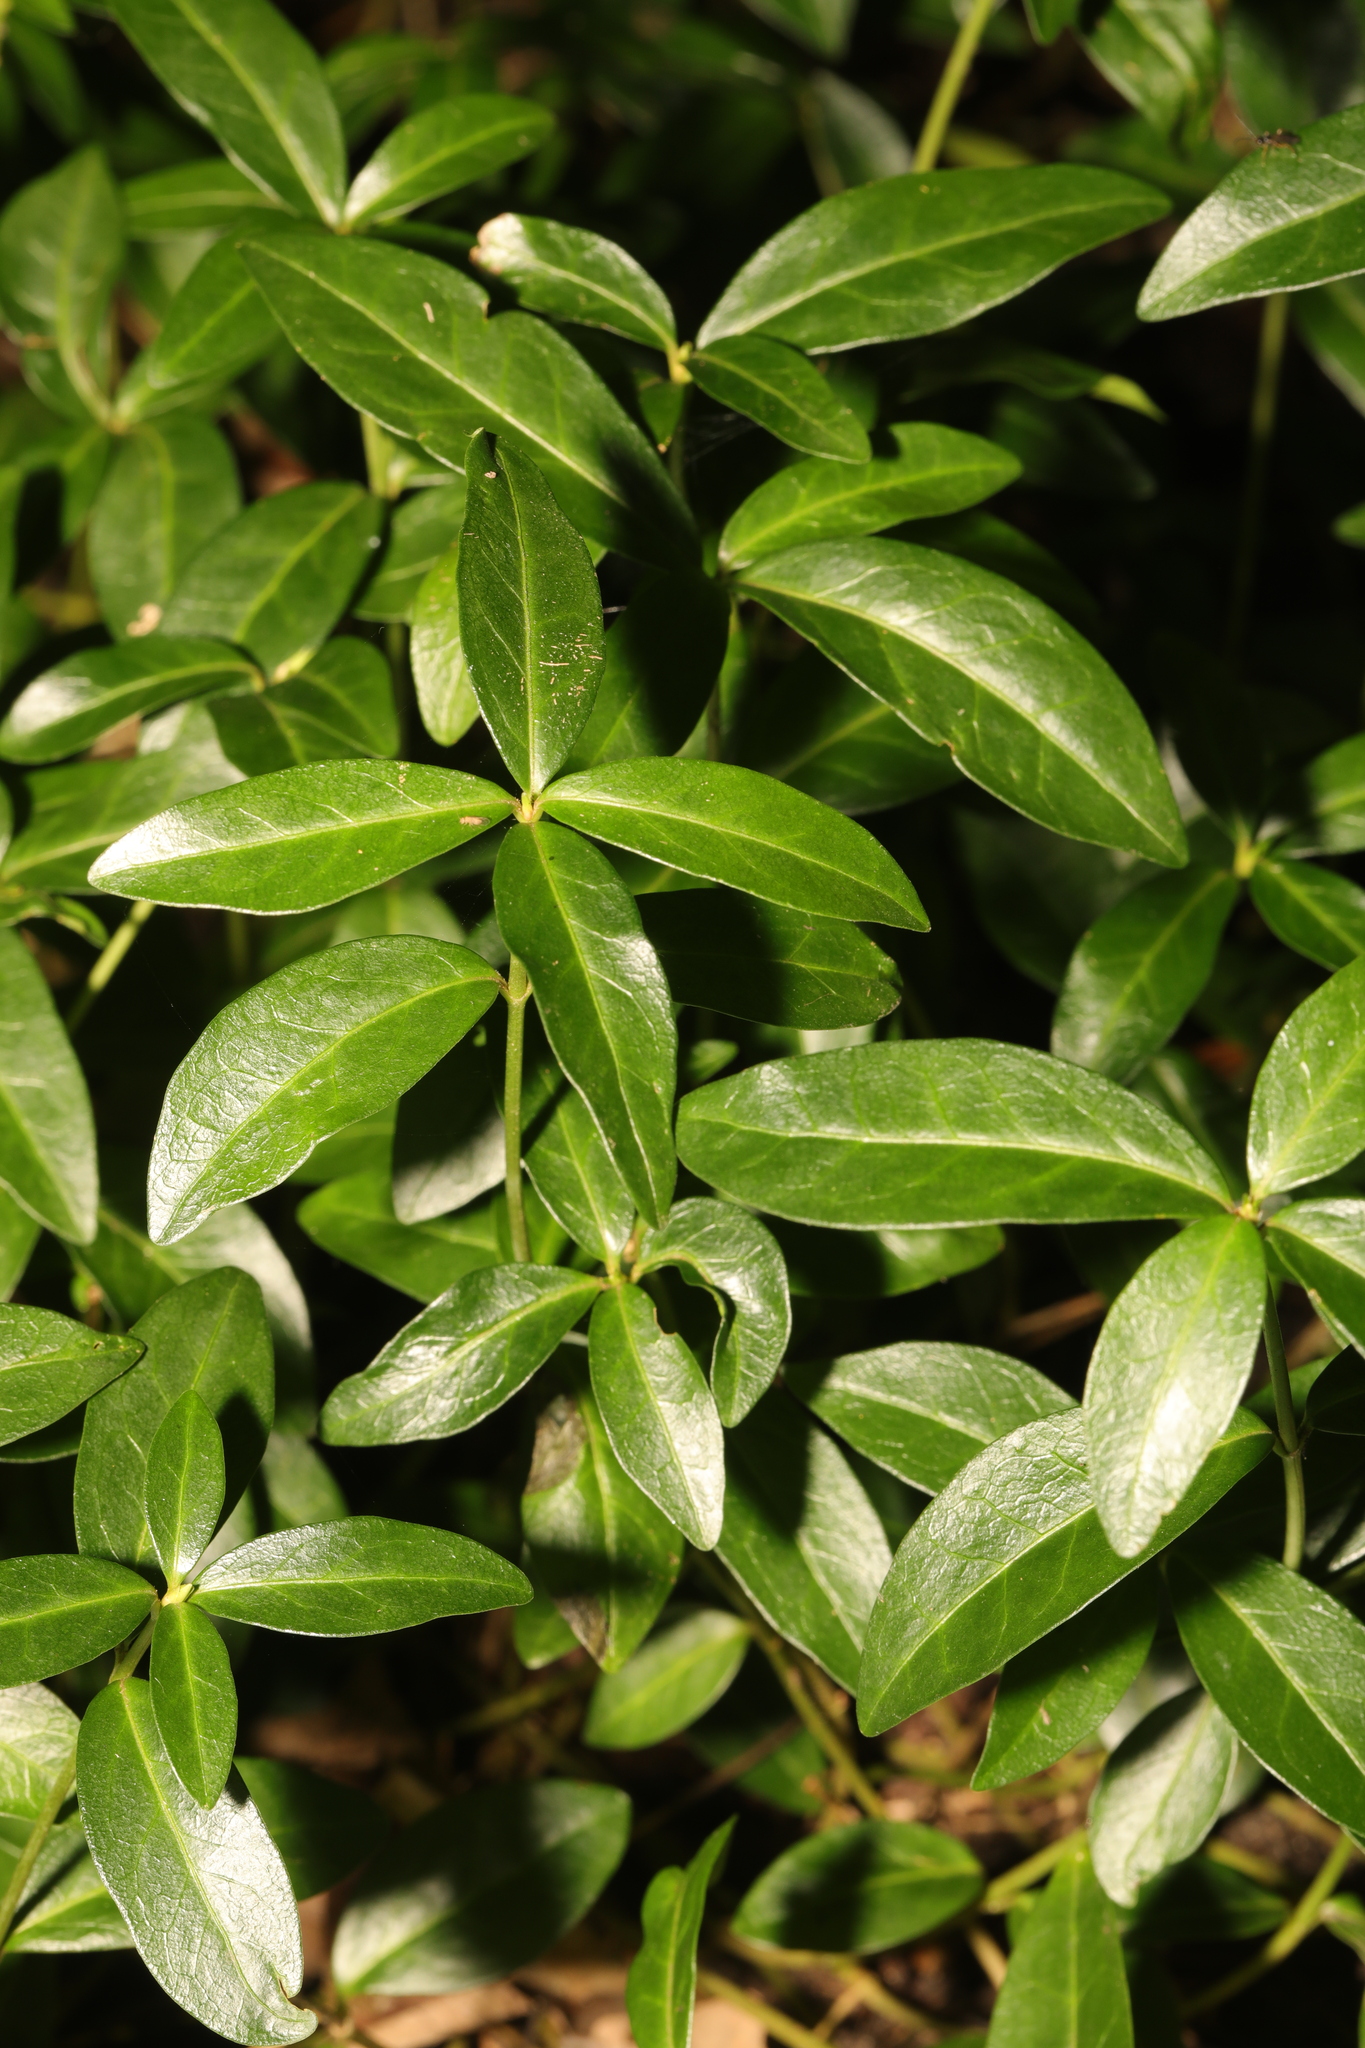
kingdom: Plantae
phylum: Tracheophyta
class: Magnoliopsida
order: Gentianales
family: Apocynaceae
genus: Vinca
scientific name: Vinca minor
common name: Lesser periwinkle
